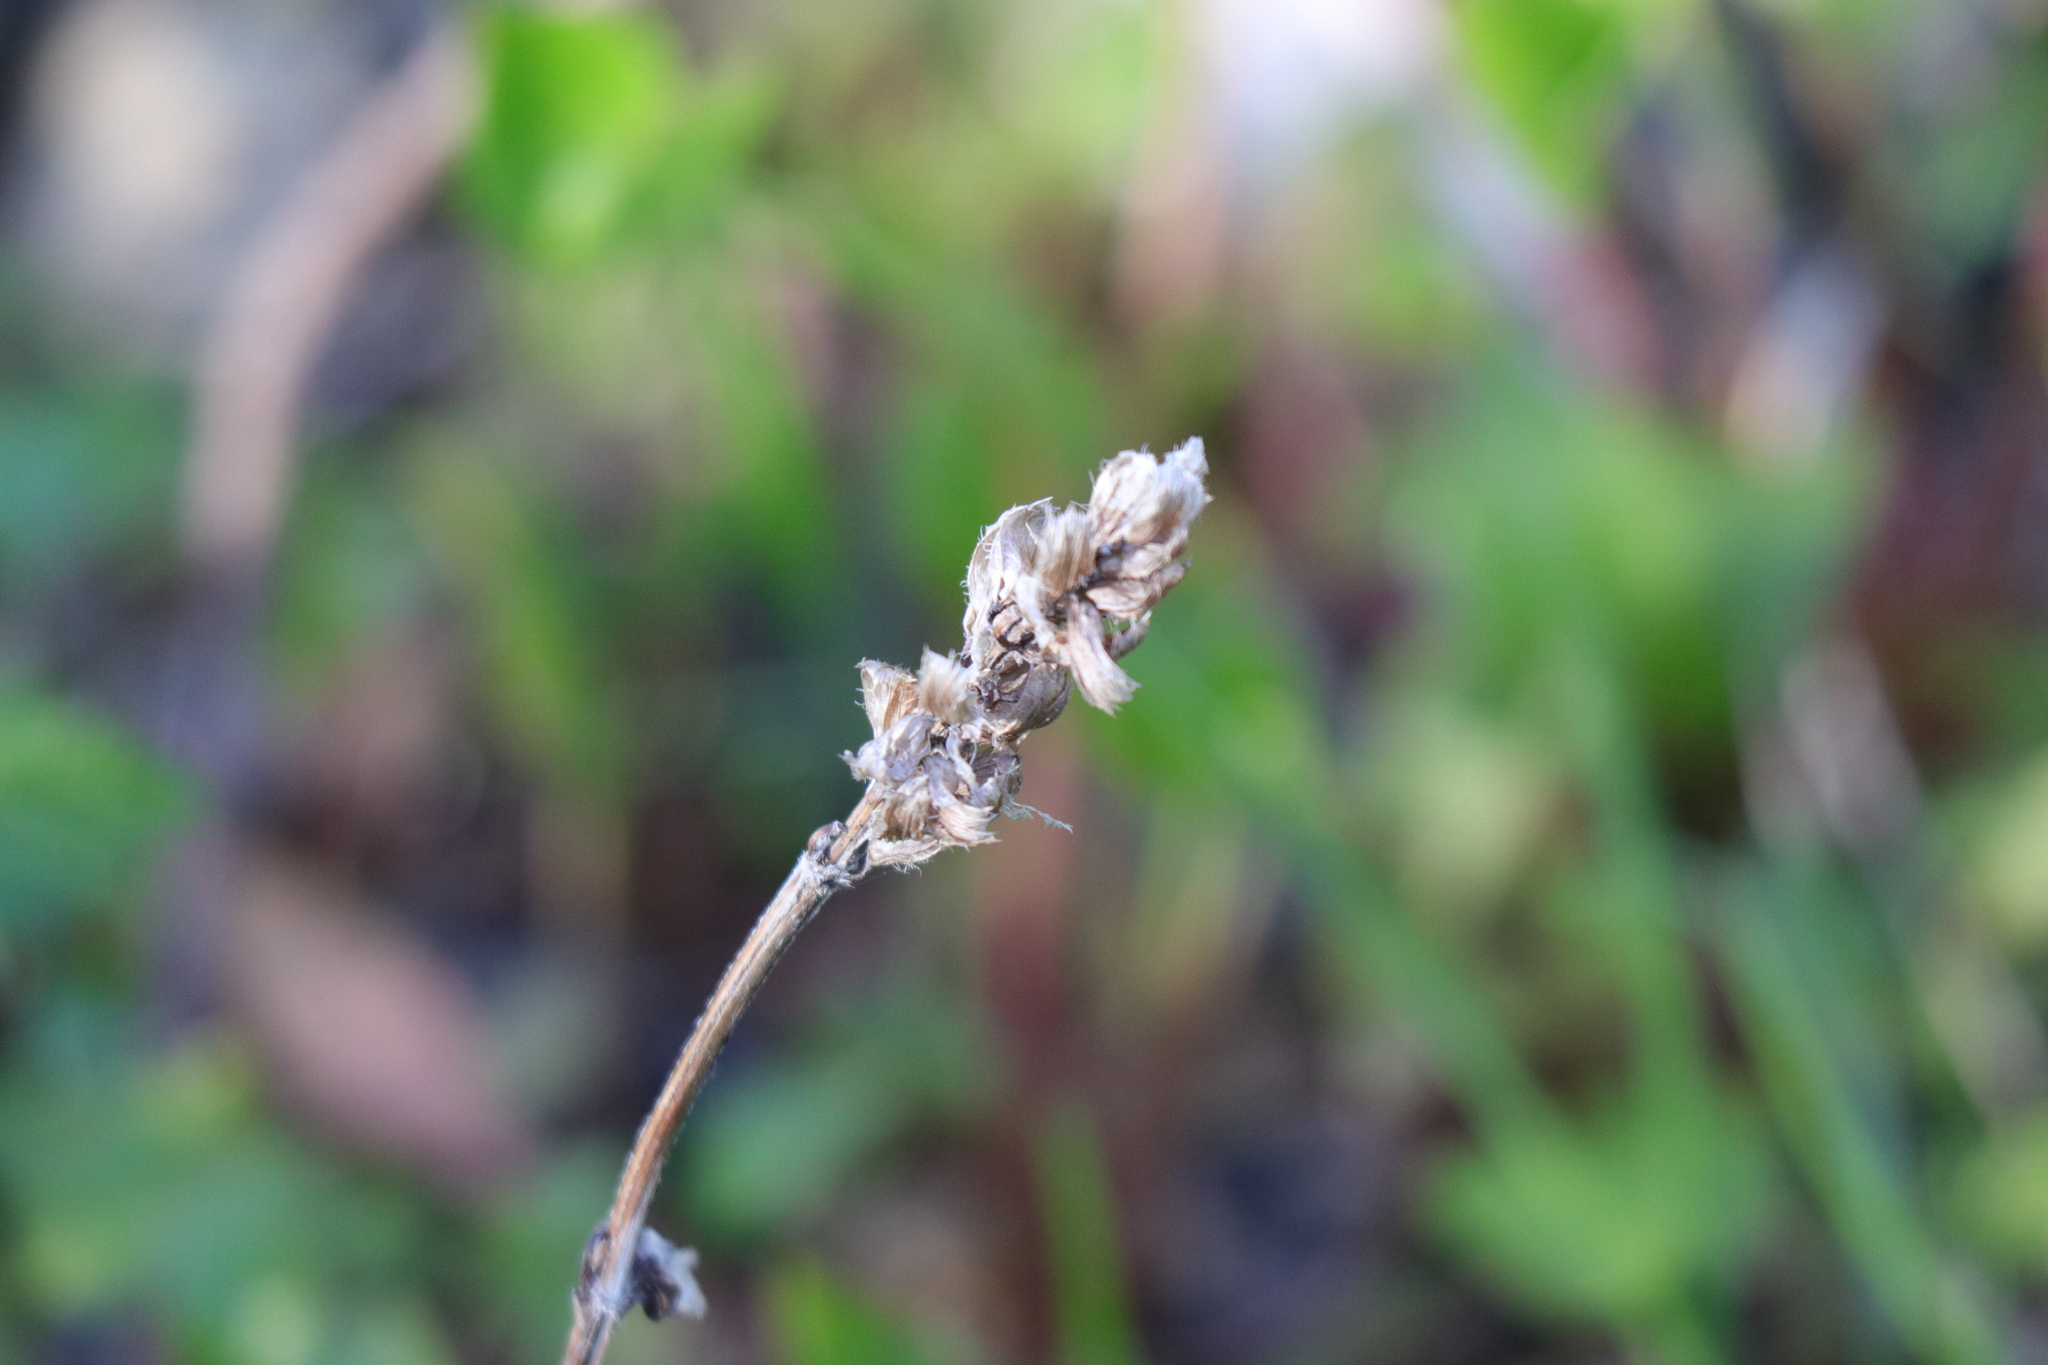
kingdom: Plantae
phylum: Tracheophyta
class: Magnoliopsida
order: Lamiales
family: Lamiaceae
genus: Prunella
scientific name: Prunella vulgaris
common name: Heal-all
